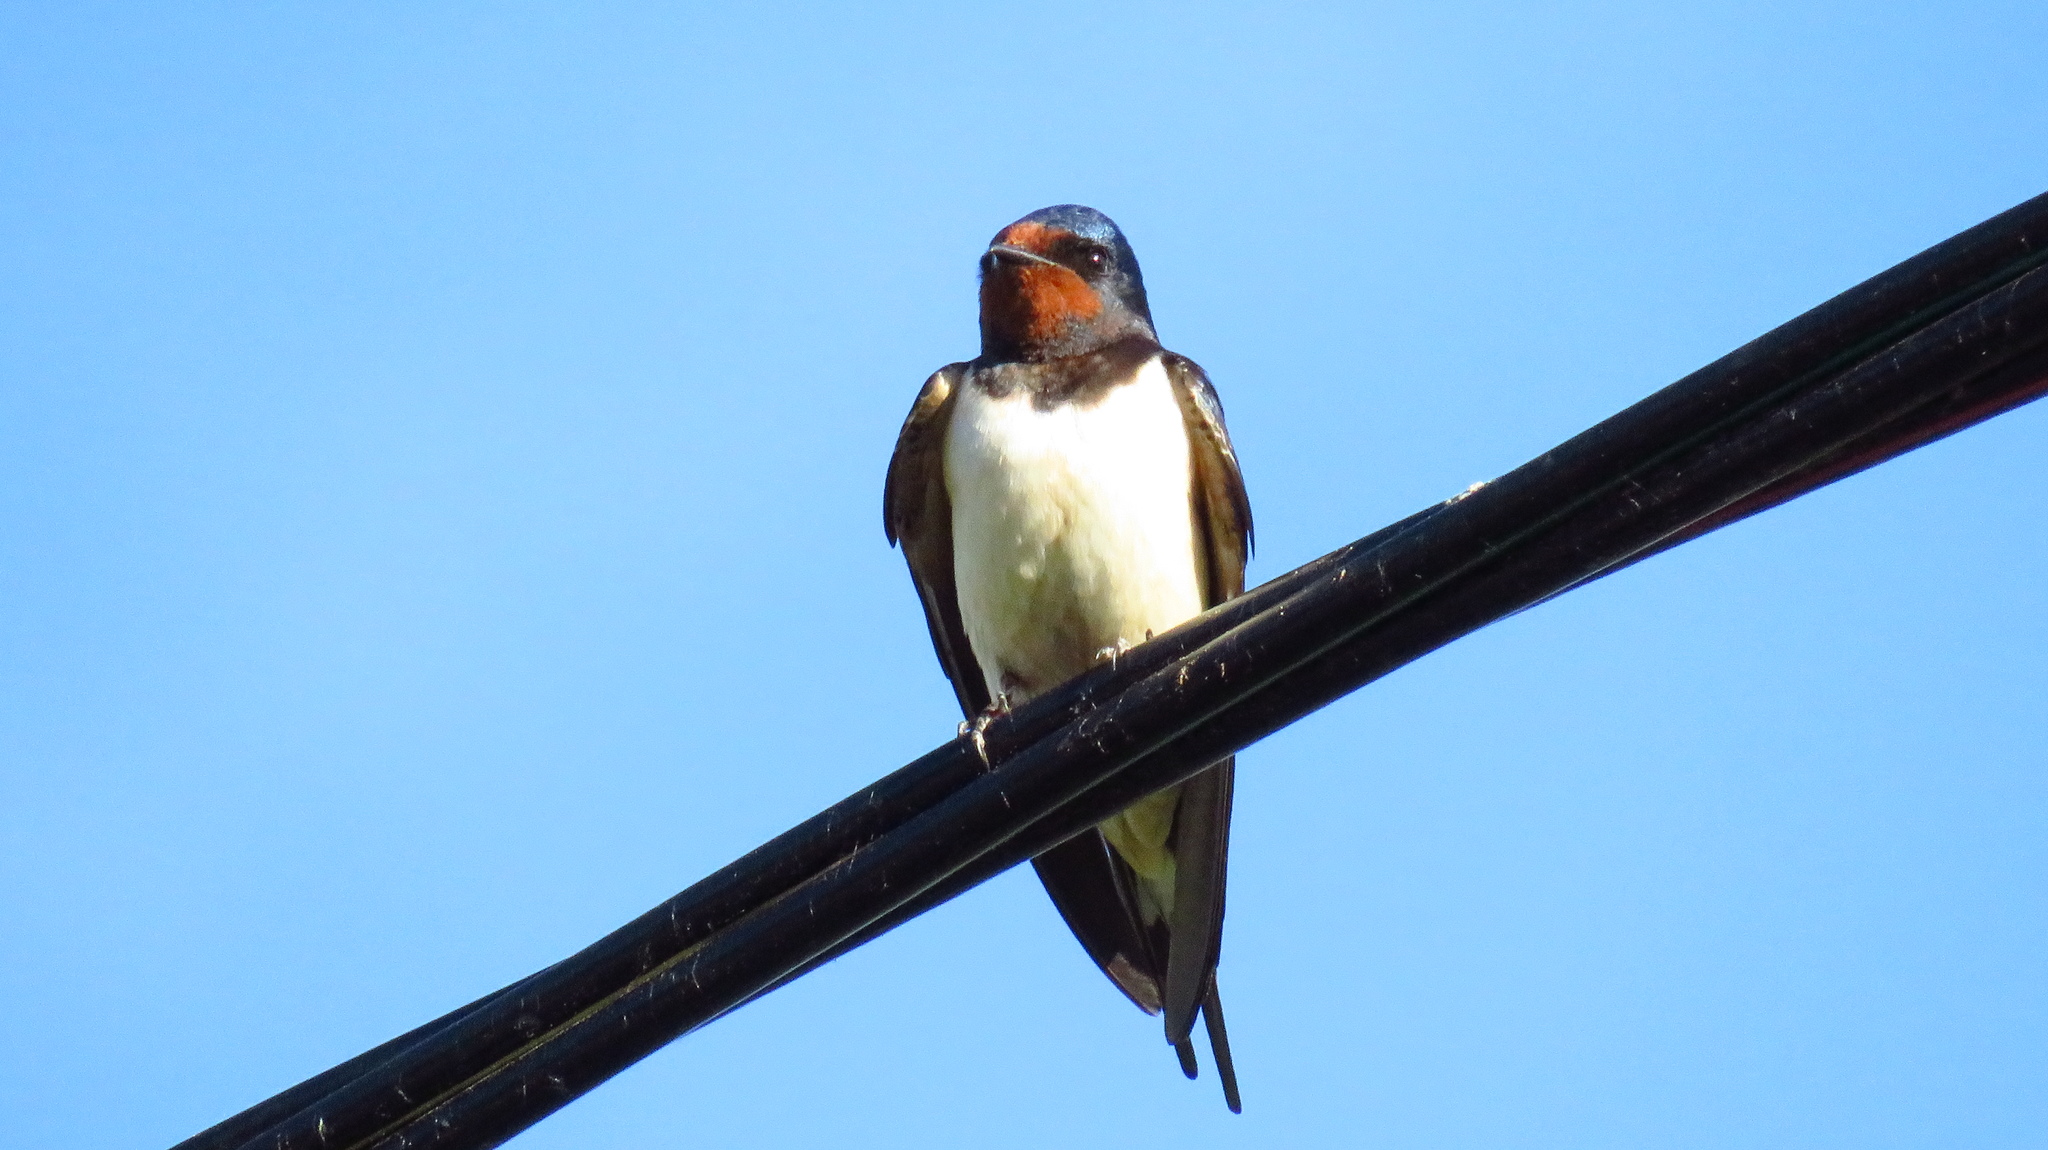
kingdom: Animalia
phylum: Chordata
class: Aves
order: Passeriformes
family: Hirundinidae
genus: Hirundo
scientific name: Hirundo rustica
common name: Barn swallow
